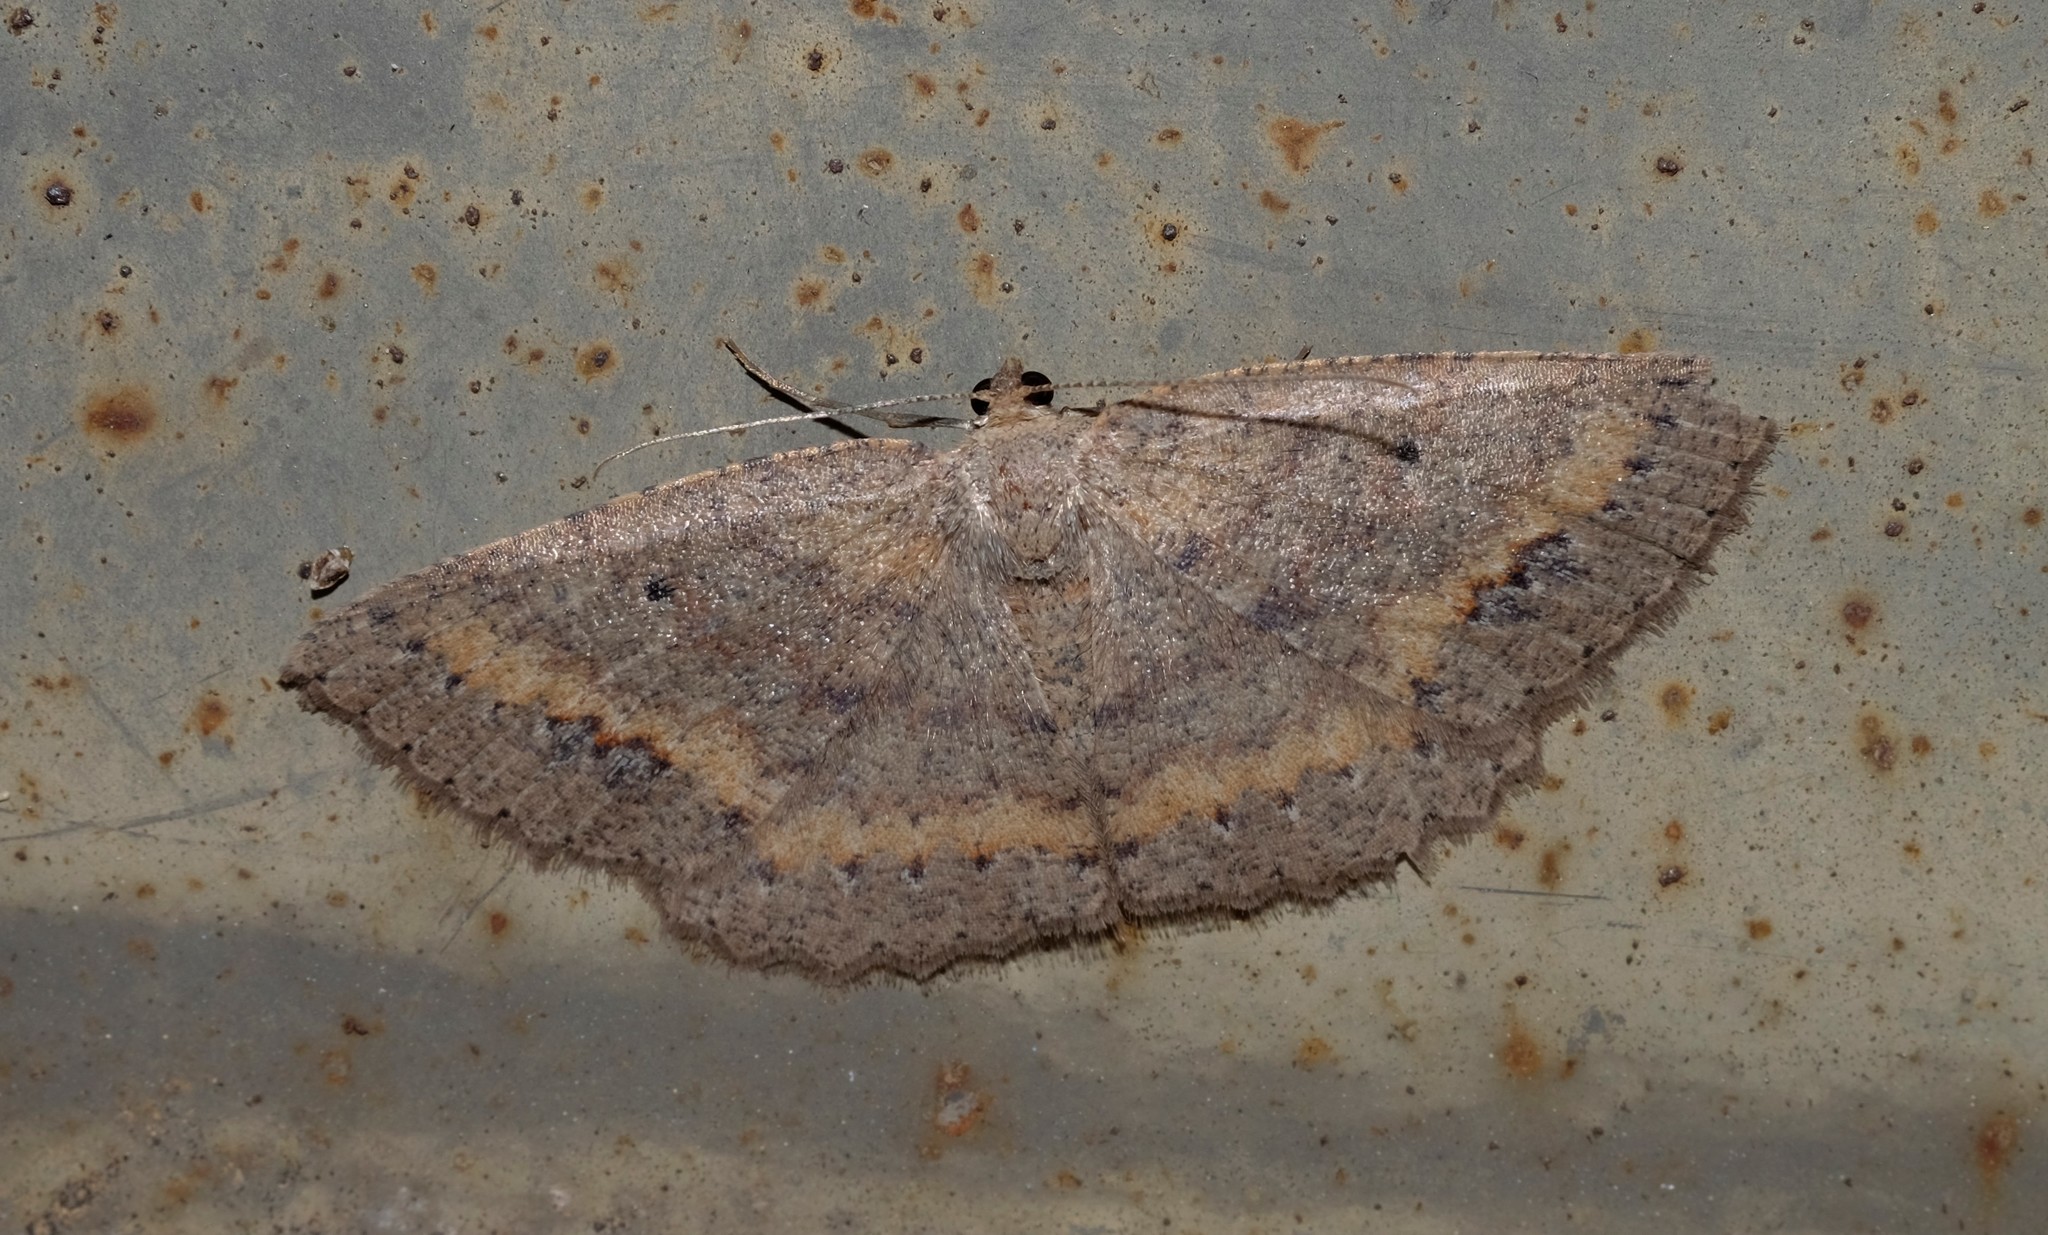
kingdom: Animalia
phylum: Arthropoda
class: Insecta
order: Lepidoptera
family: Geometridae
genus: Casbia
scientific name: Casbia melanops
